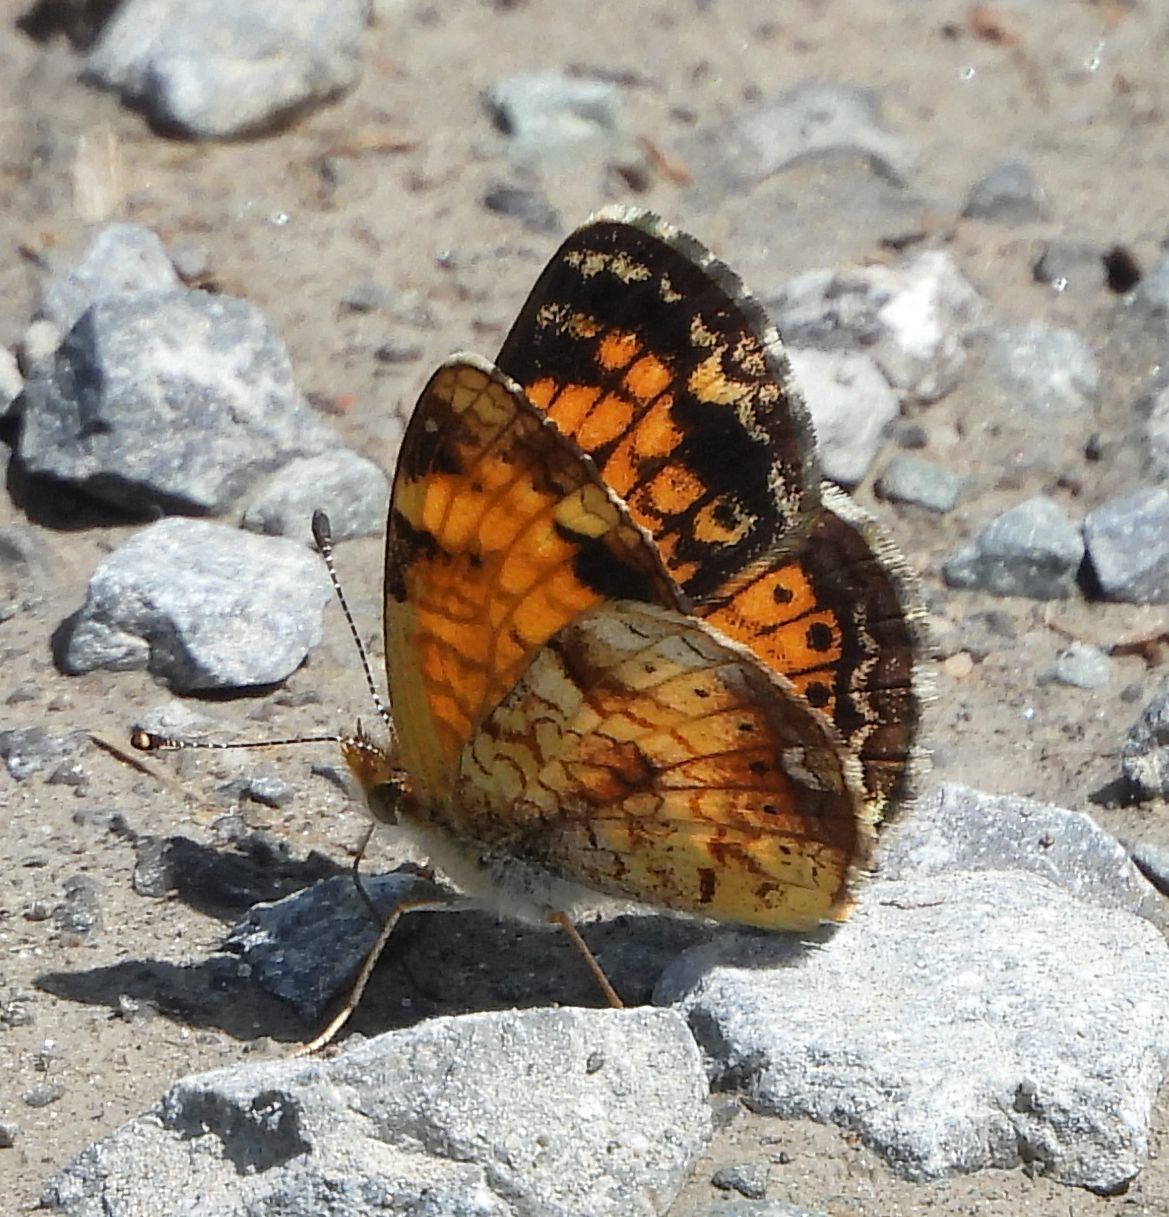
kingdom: Animalia
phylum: Arthropoda
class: Insecta
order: Lepidoptera
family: Nymphalidae
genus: Phyciodes
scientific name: Phyciodes tharos
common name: Pearl crescent
